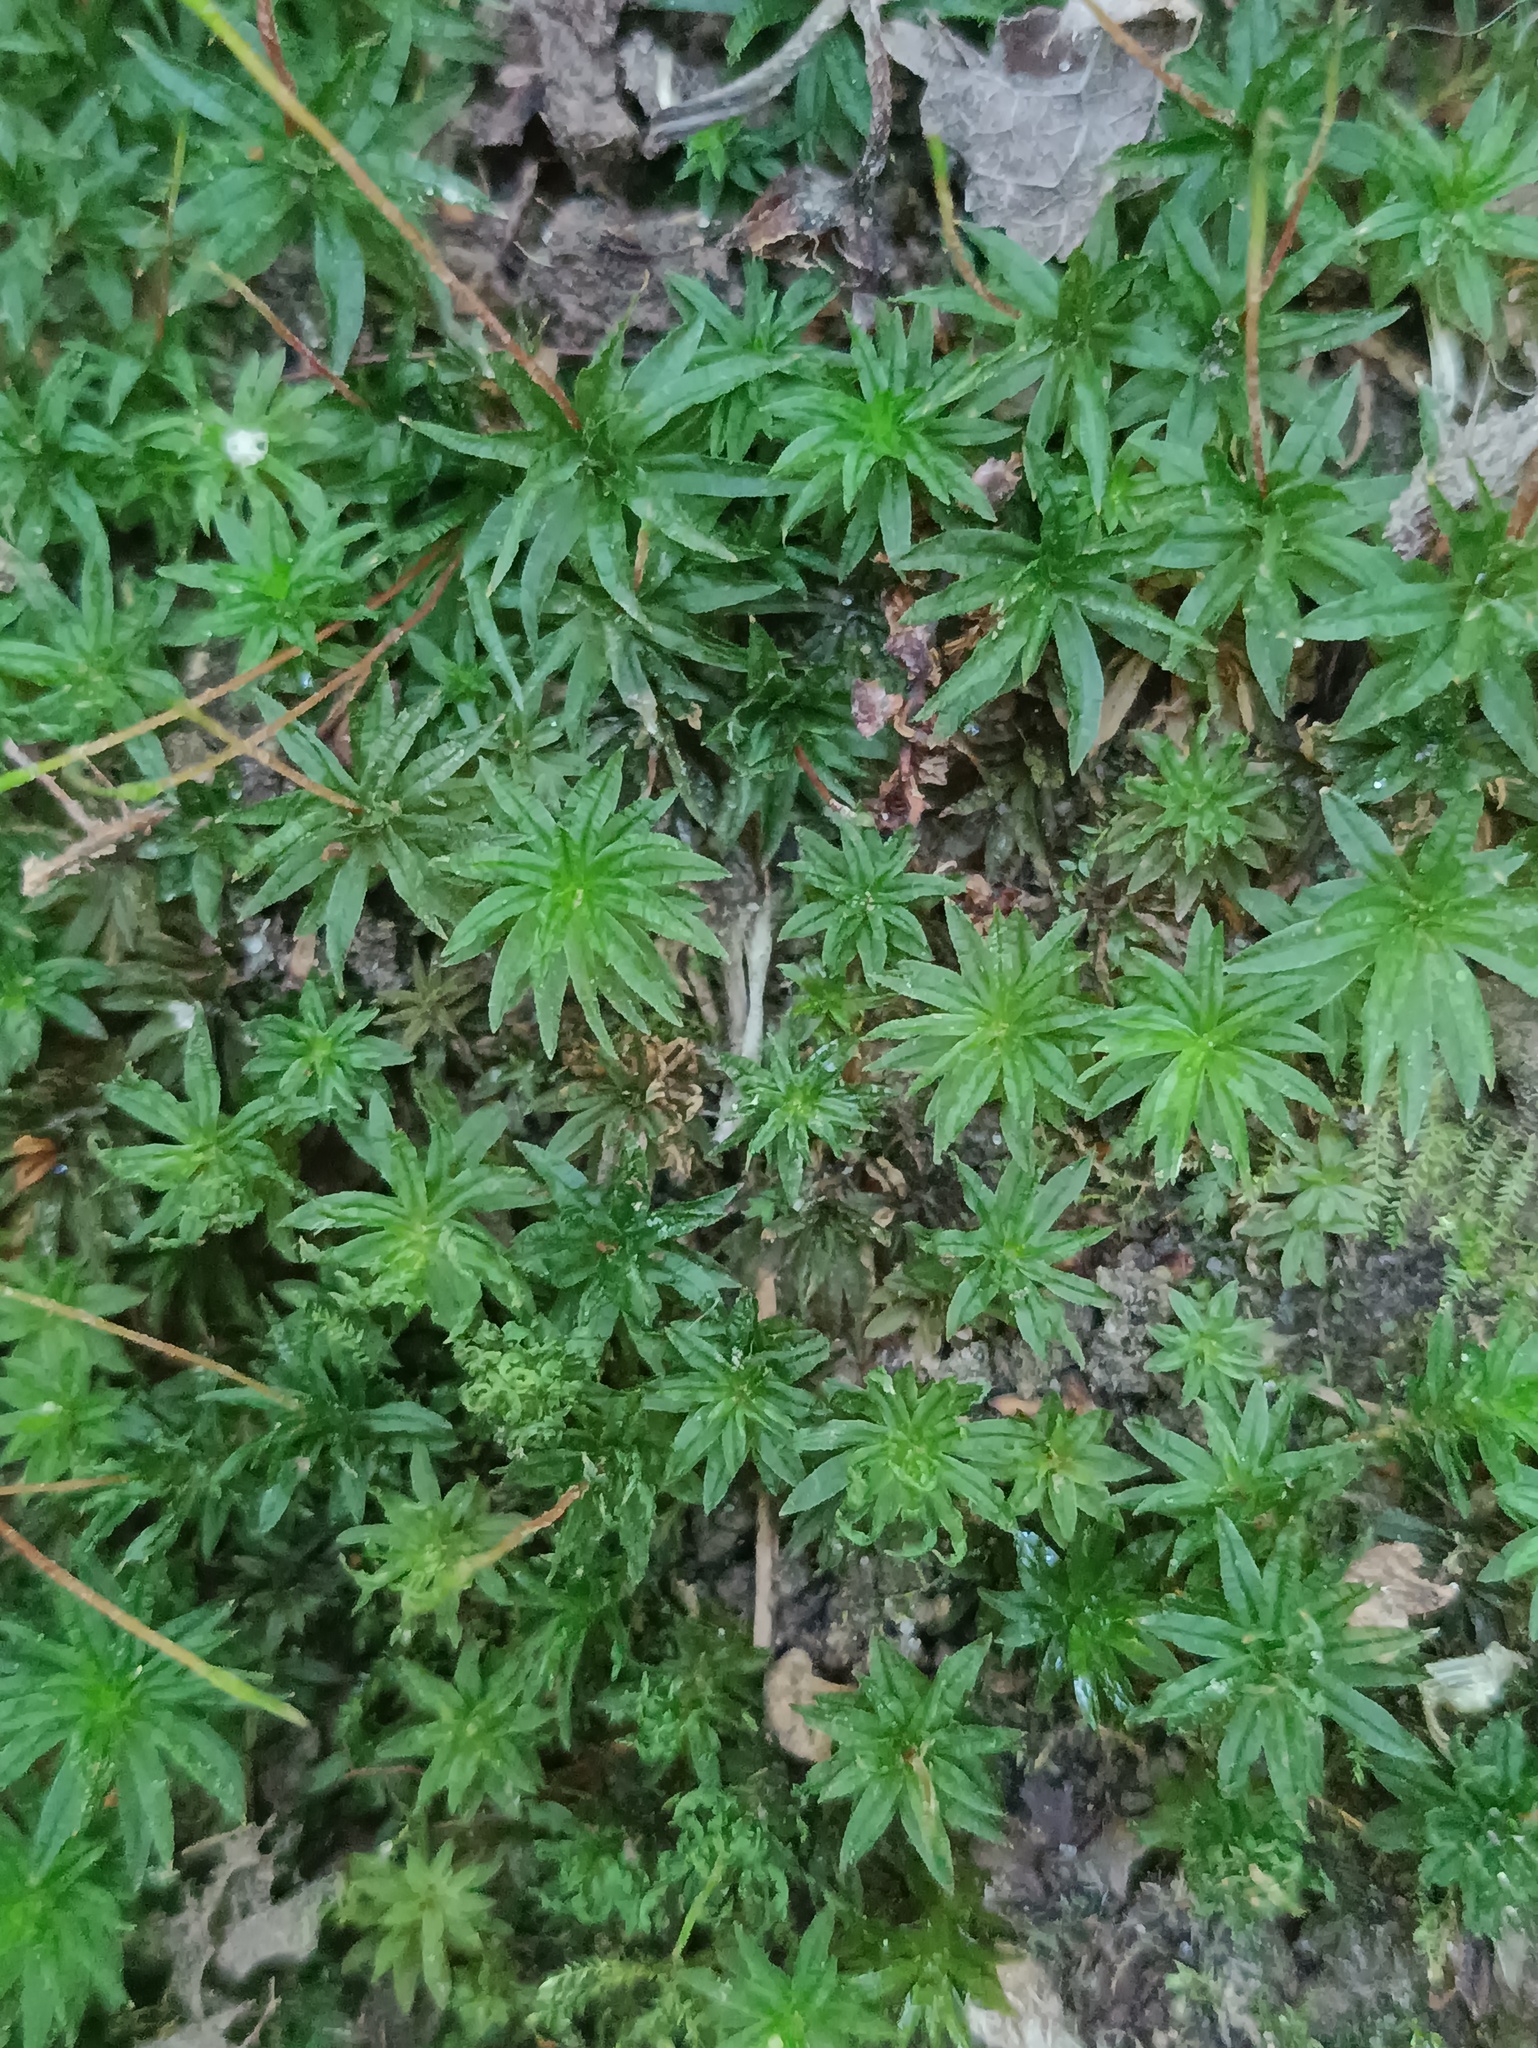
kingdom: Plantae
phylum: Bryophyta
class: Polytrichopsida
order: Polytrichales
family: Polytrichaceae
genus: Atrichum
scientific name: Atrichum undulatum
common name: Common smoothcap
